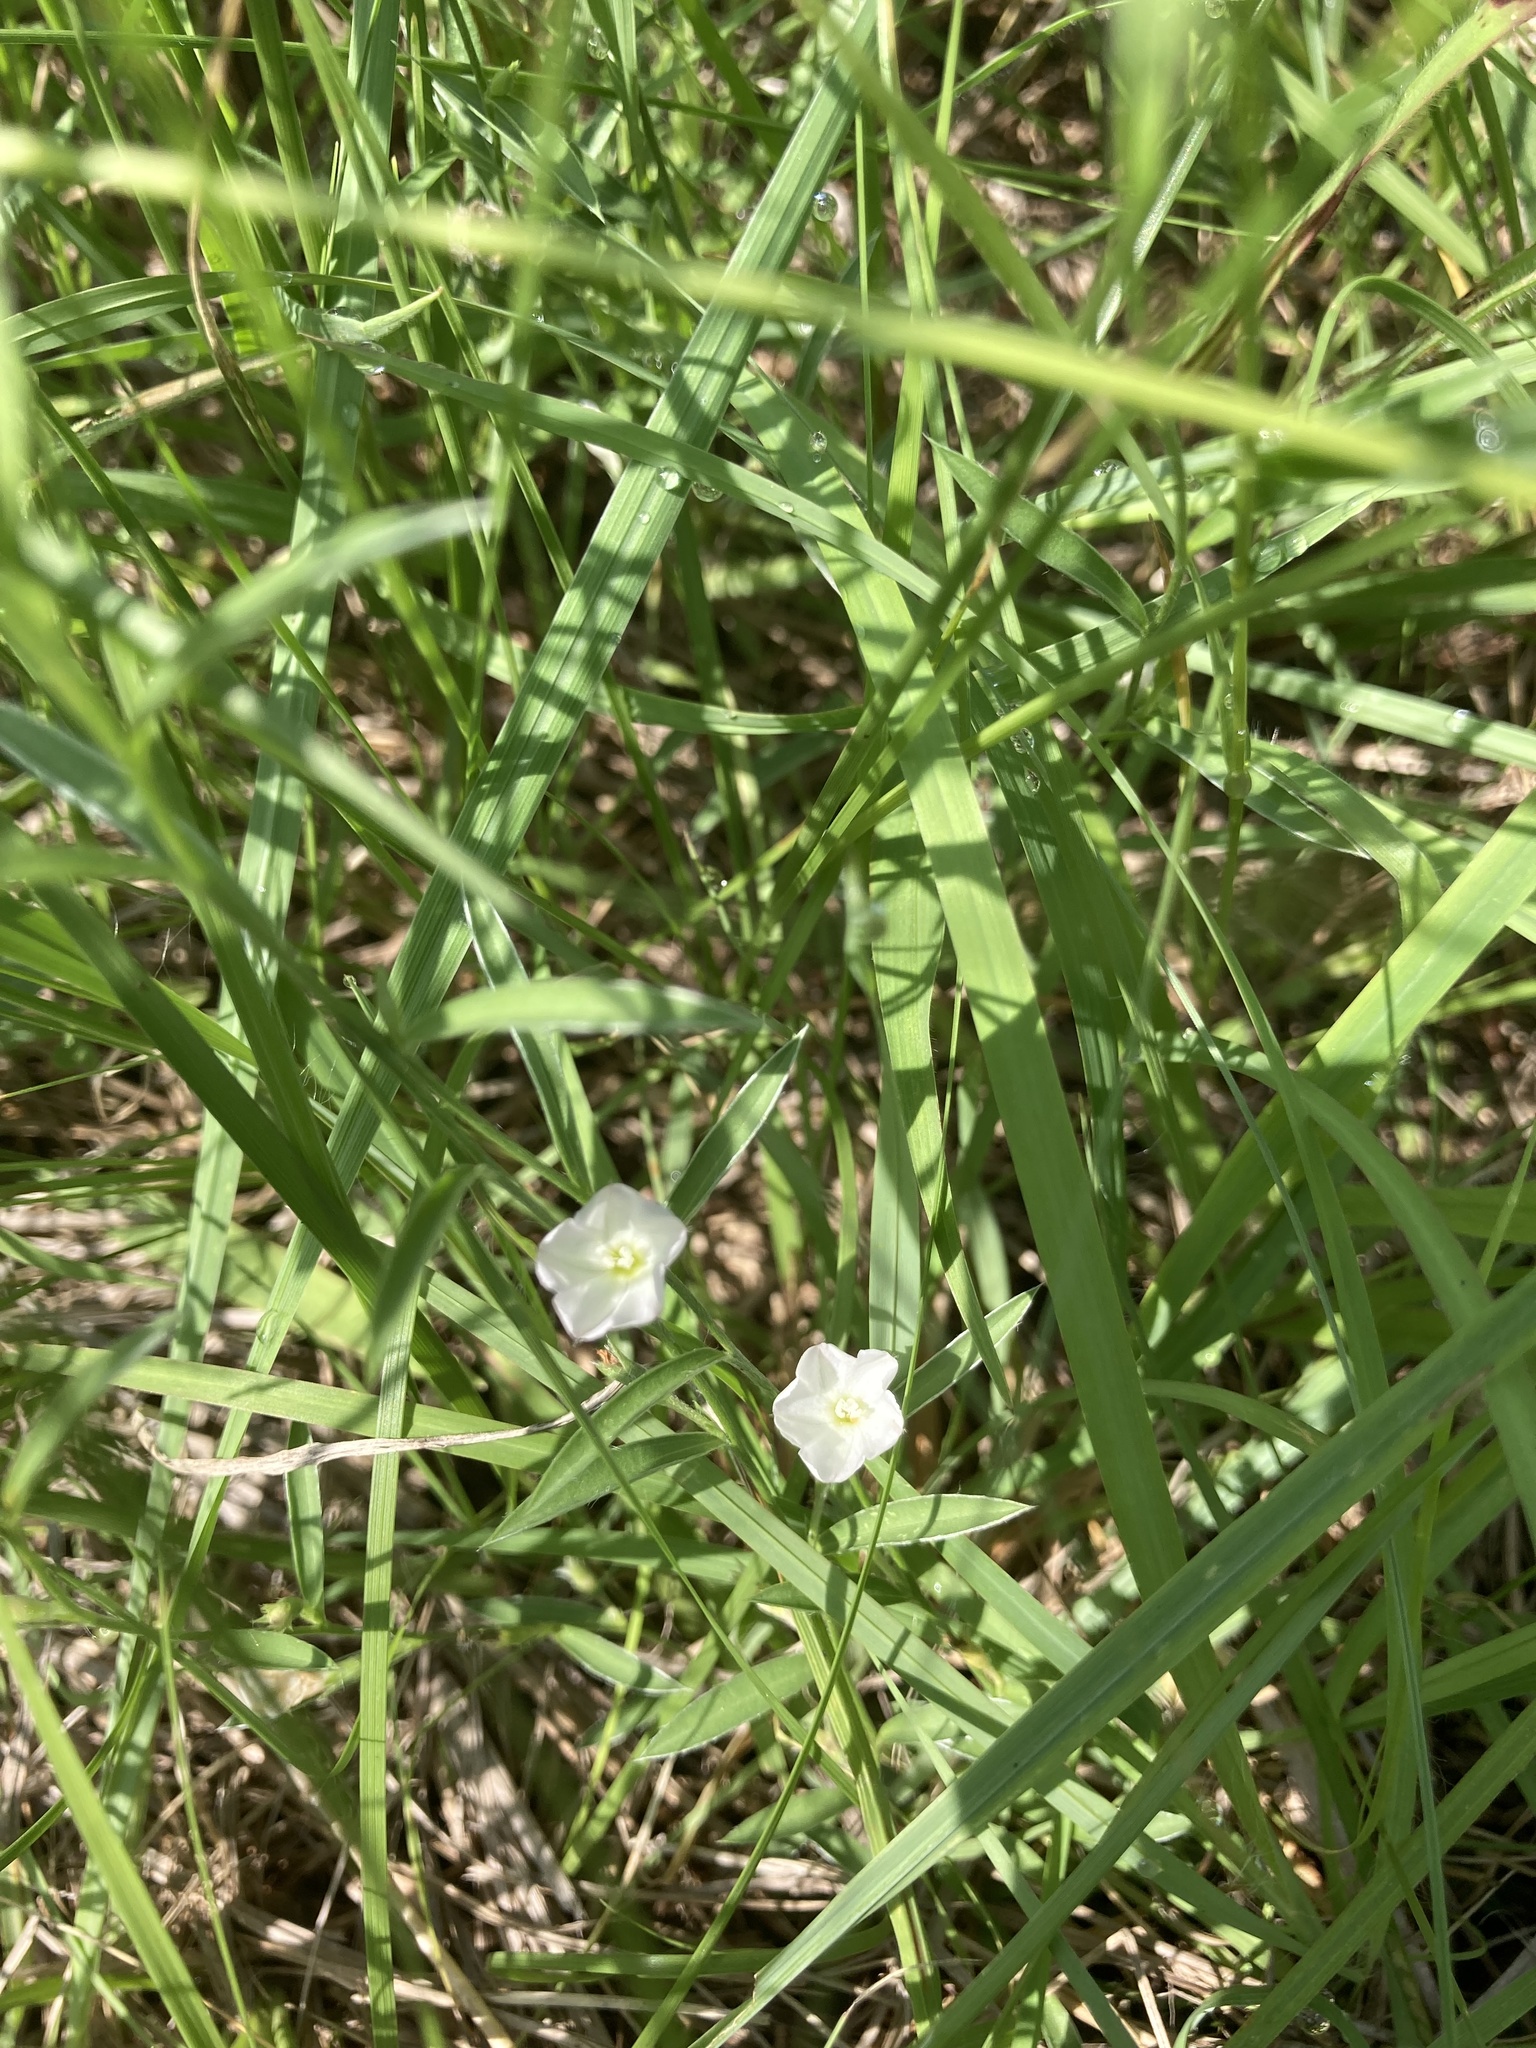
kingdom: Plantae
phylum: Tracheophyta
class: Magnoliopsida
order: Solanales
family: Convolvulaceae
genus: Evolvulus
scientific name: Evolvulus sericeus
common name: Blue dots
